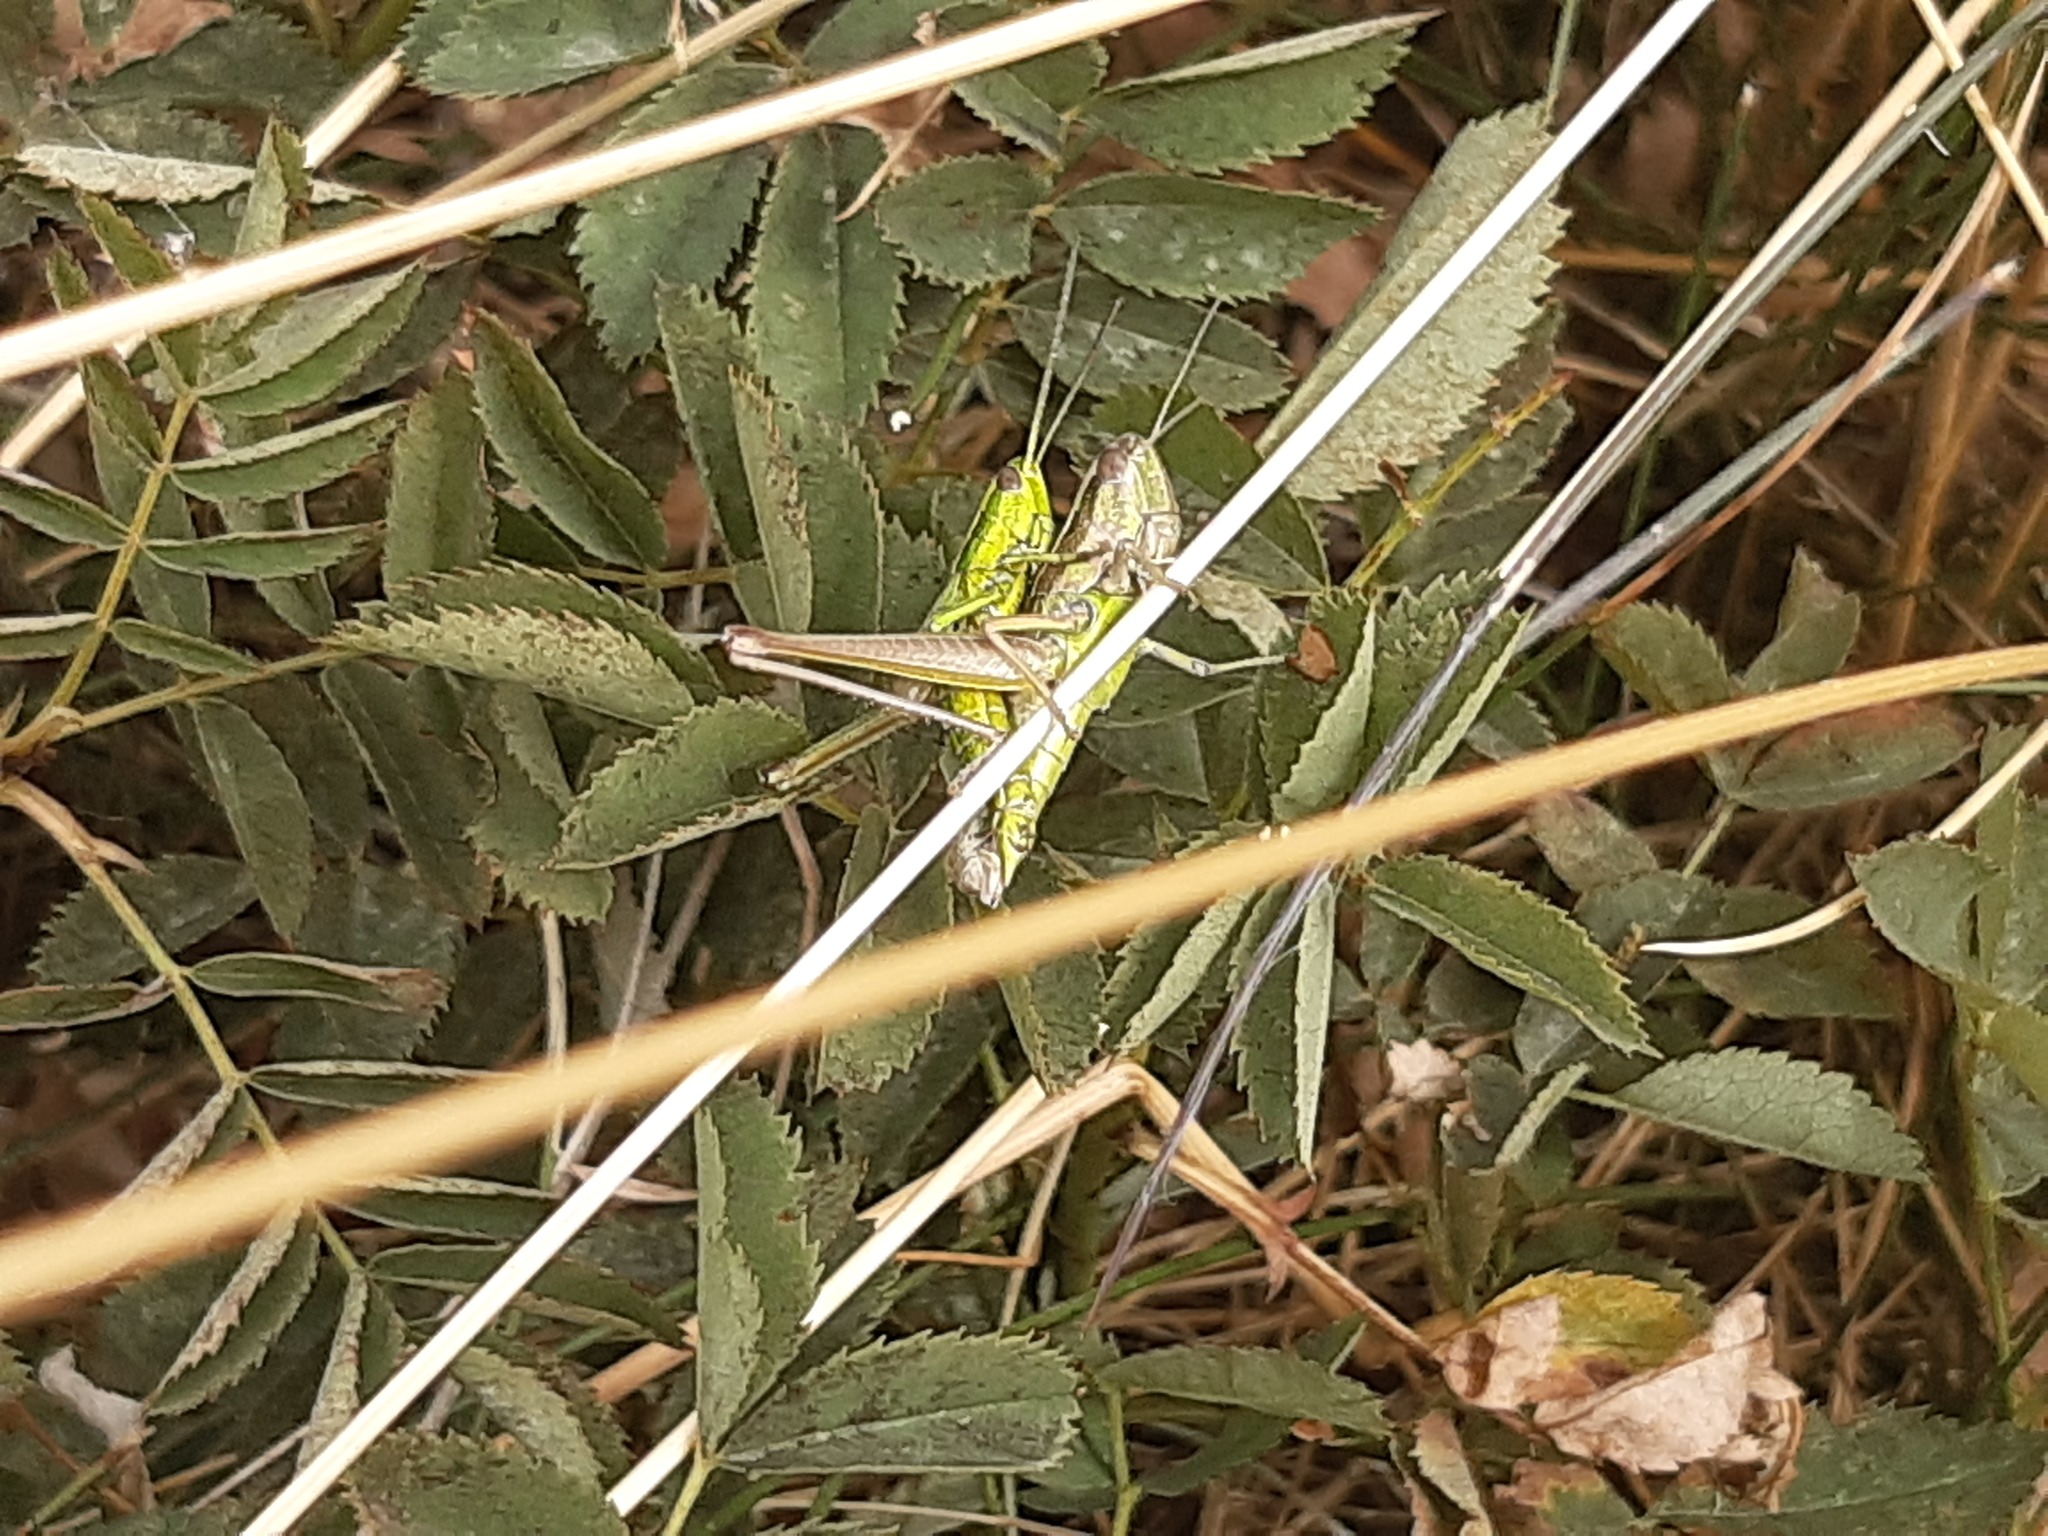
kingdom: Animalia
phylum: Arthropoda
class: Insecta
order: Orthoptera
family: Acrididae
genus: Euthystira
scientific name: Euthystira brachyptera
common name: Small gold grasshopper
